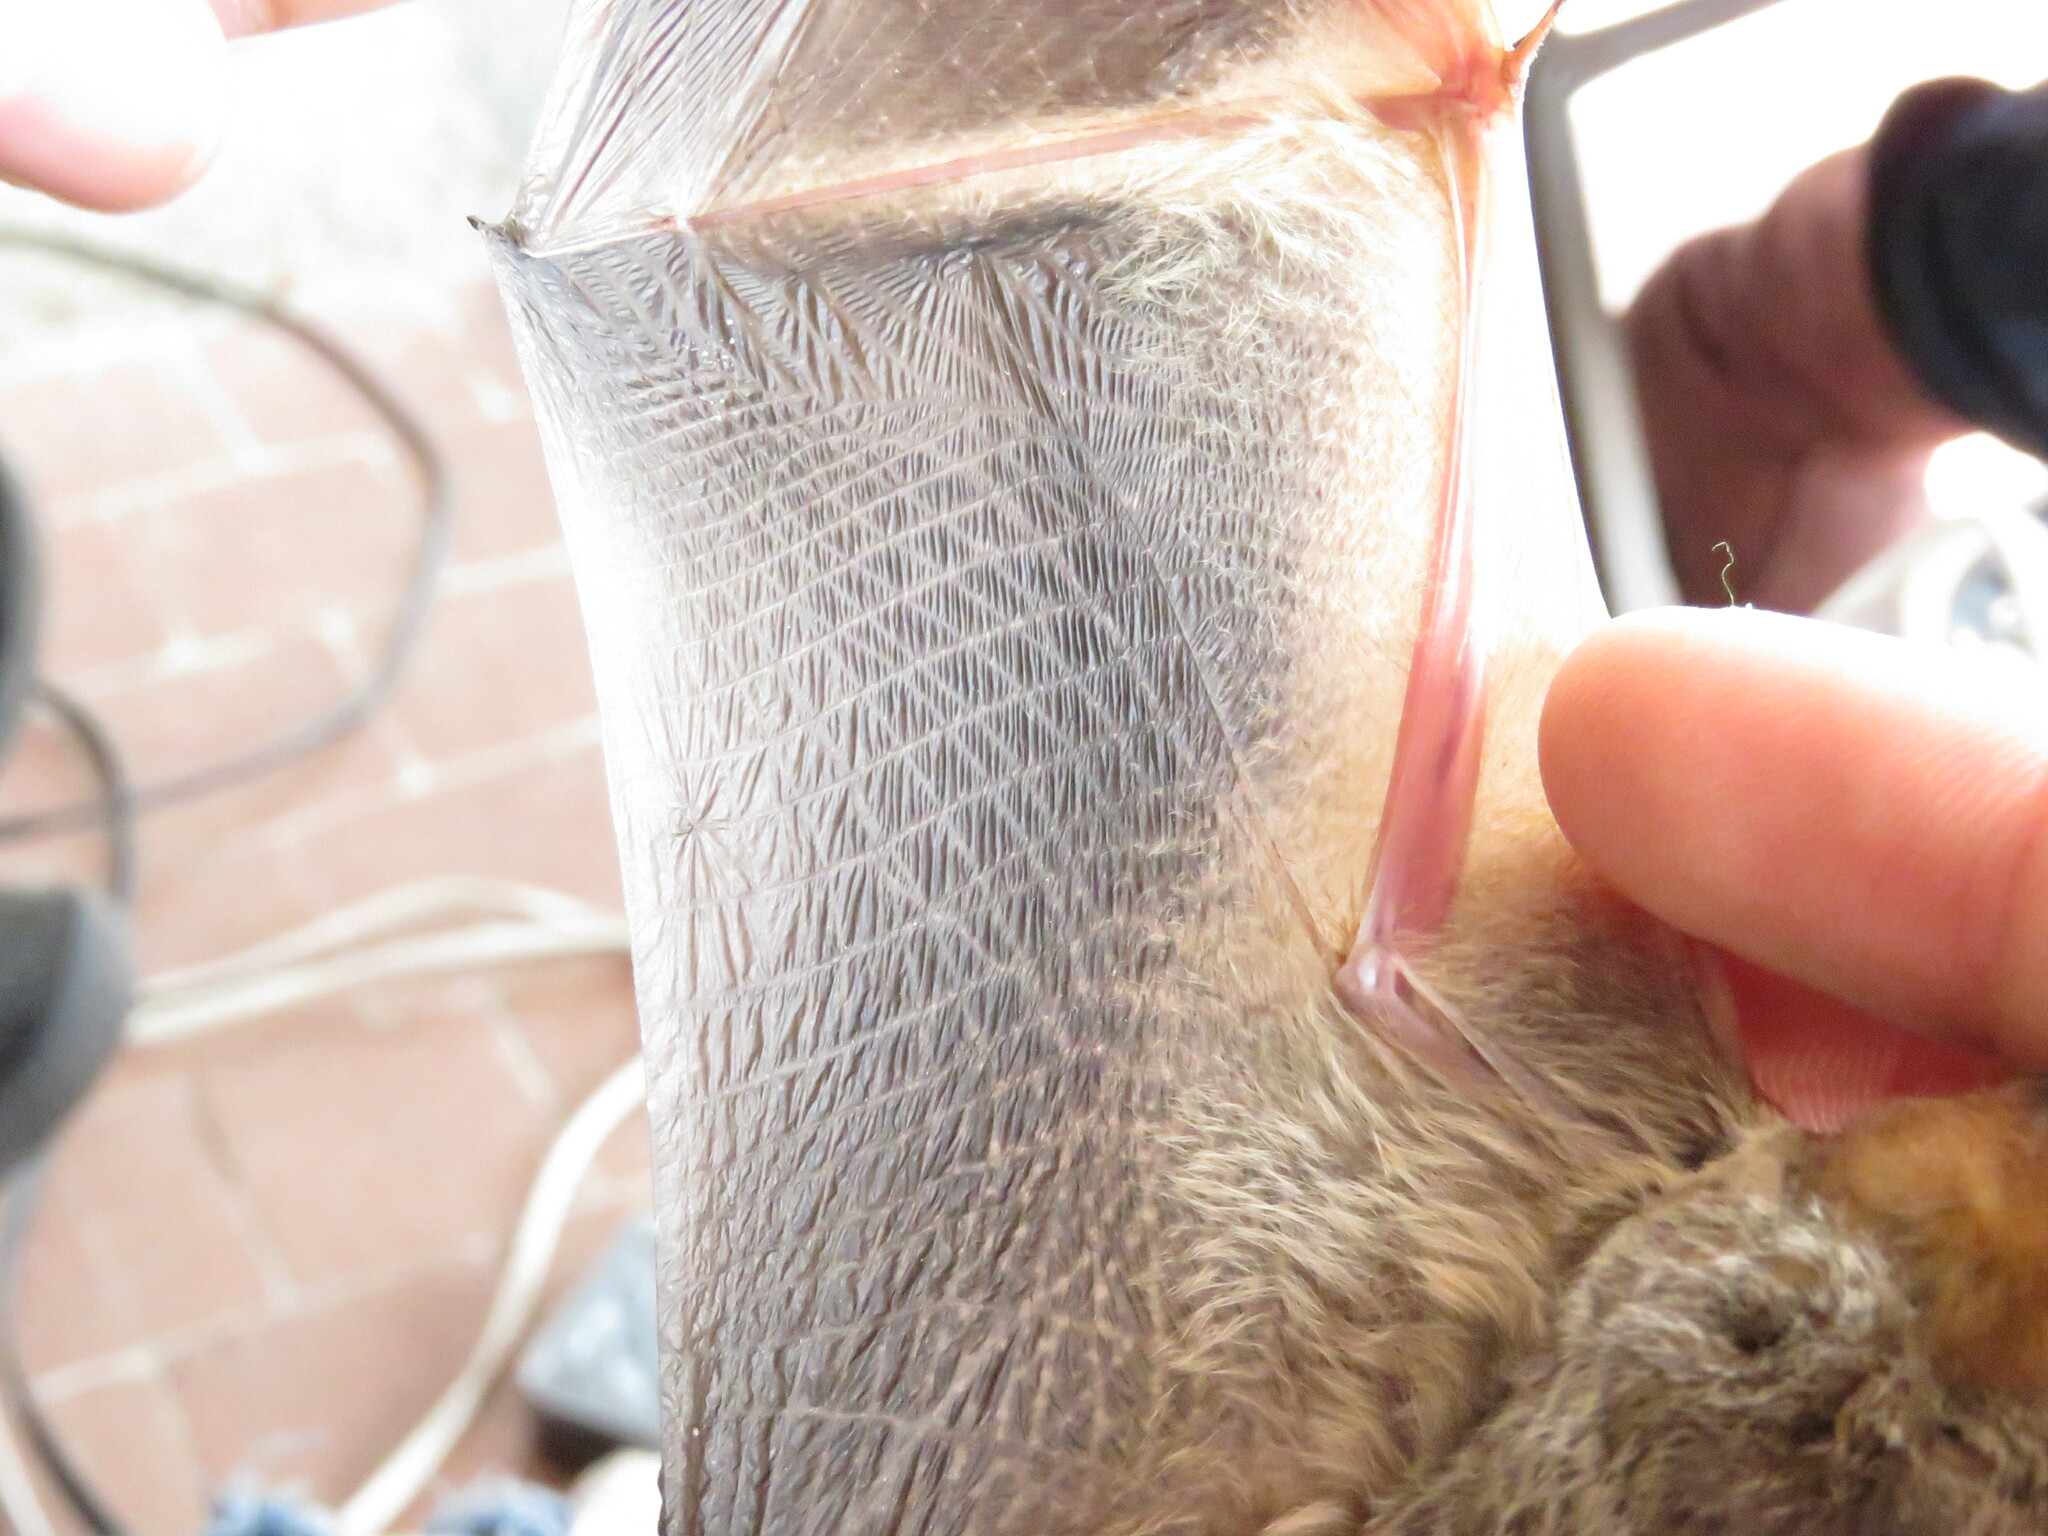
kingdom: Animalia
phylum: Chordata
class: Mammalia
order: Chiroptera
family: Vespertilionidae
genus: Lasiurus
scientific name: Lasiurus blossevillii
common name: Southern red bat
